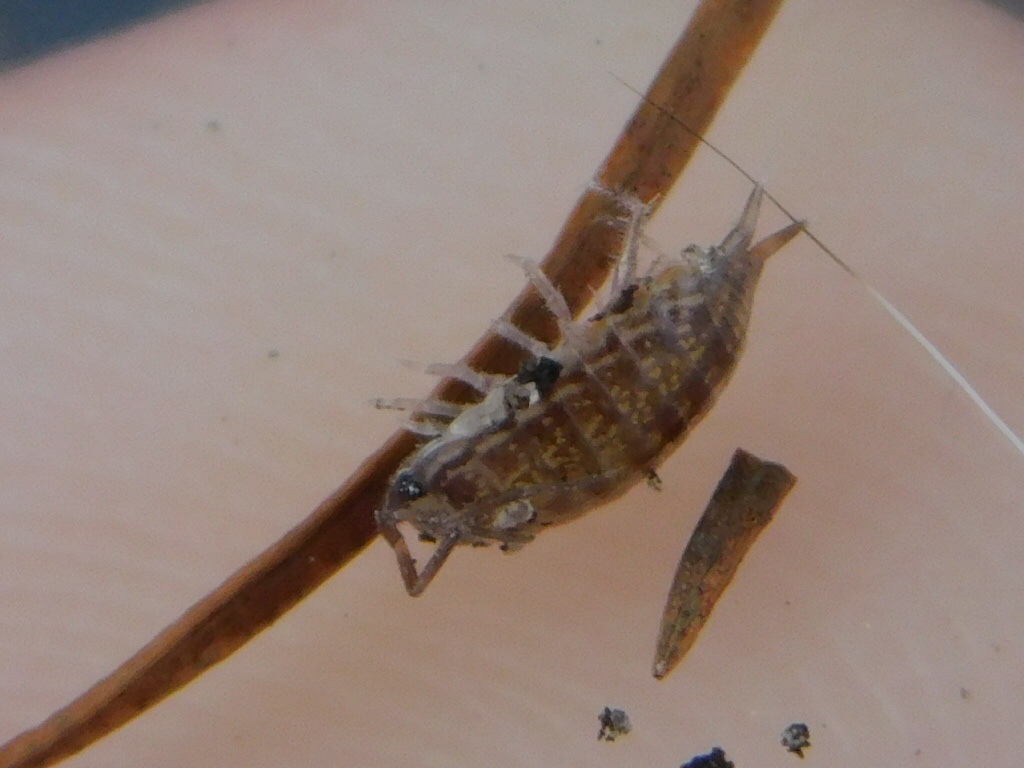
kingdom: Animalia
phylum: Arthropoda
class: Malacostraca
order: Isopoda
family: Philosciidae
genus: Atlantoscia
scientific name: Atlantoscia floridana
